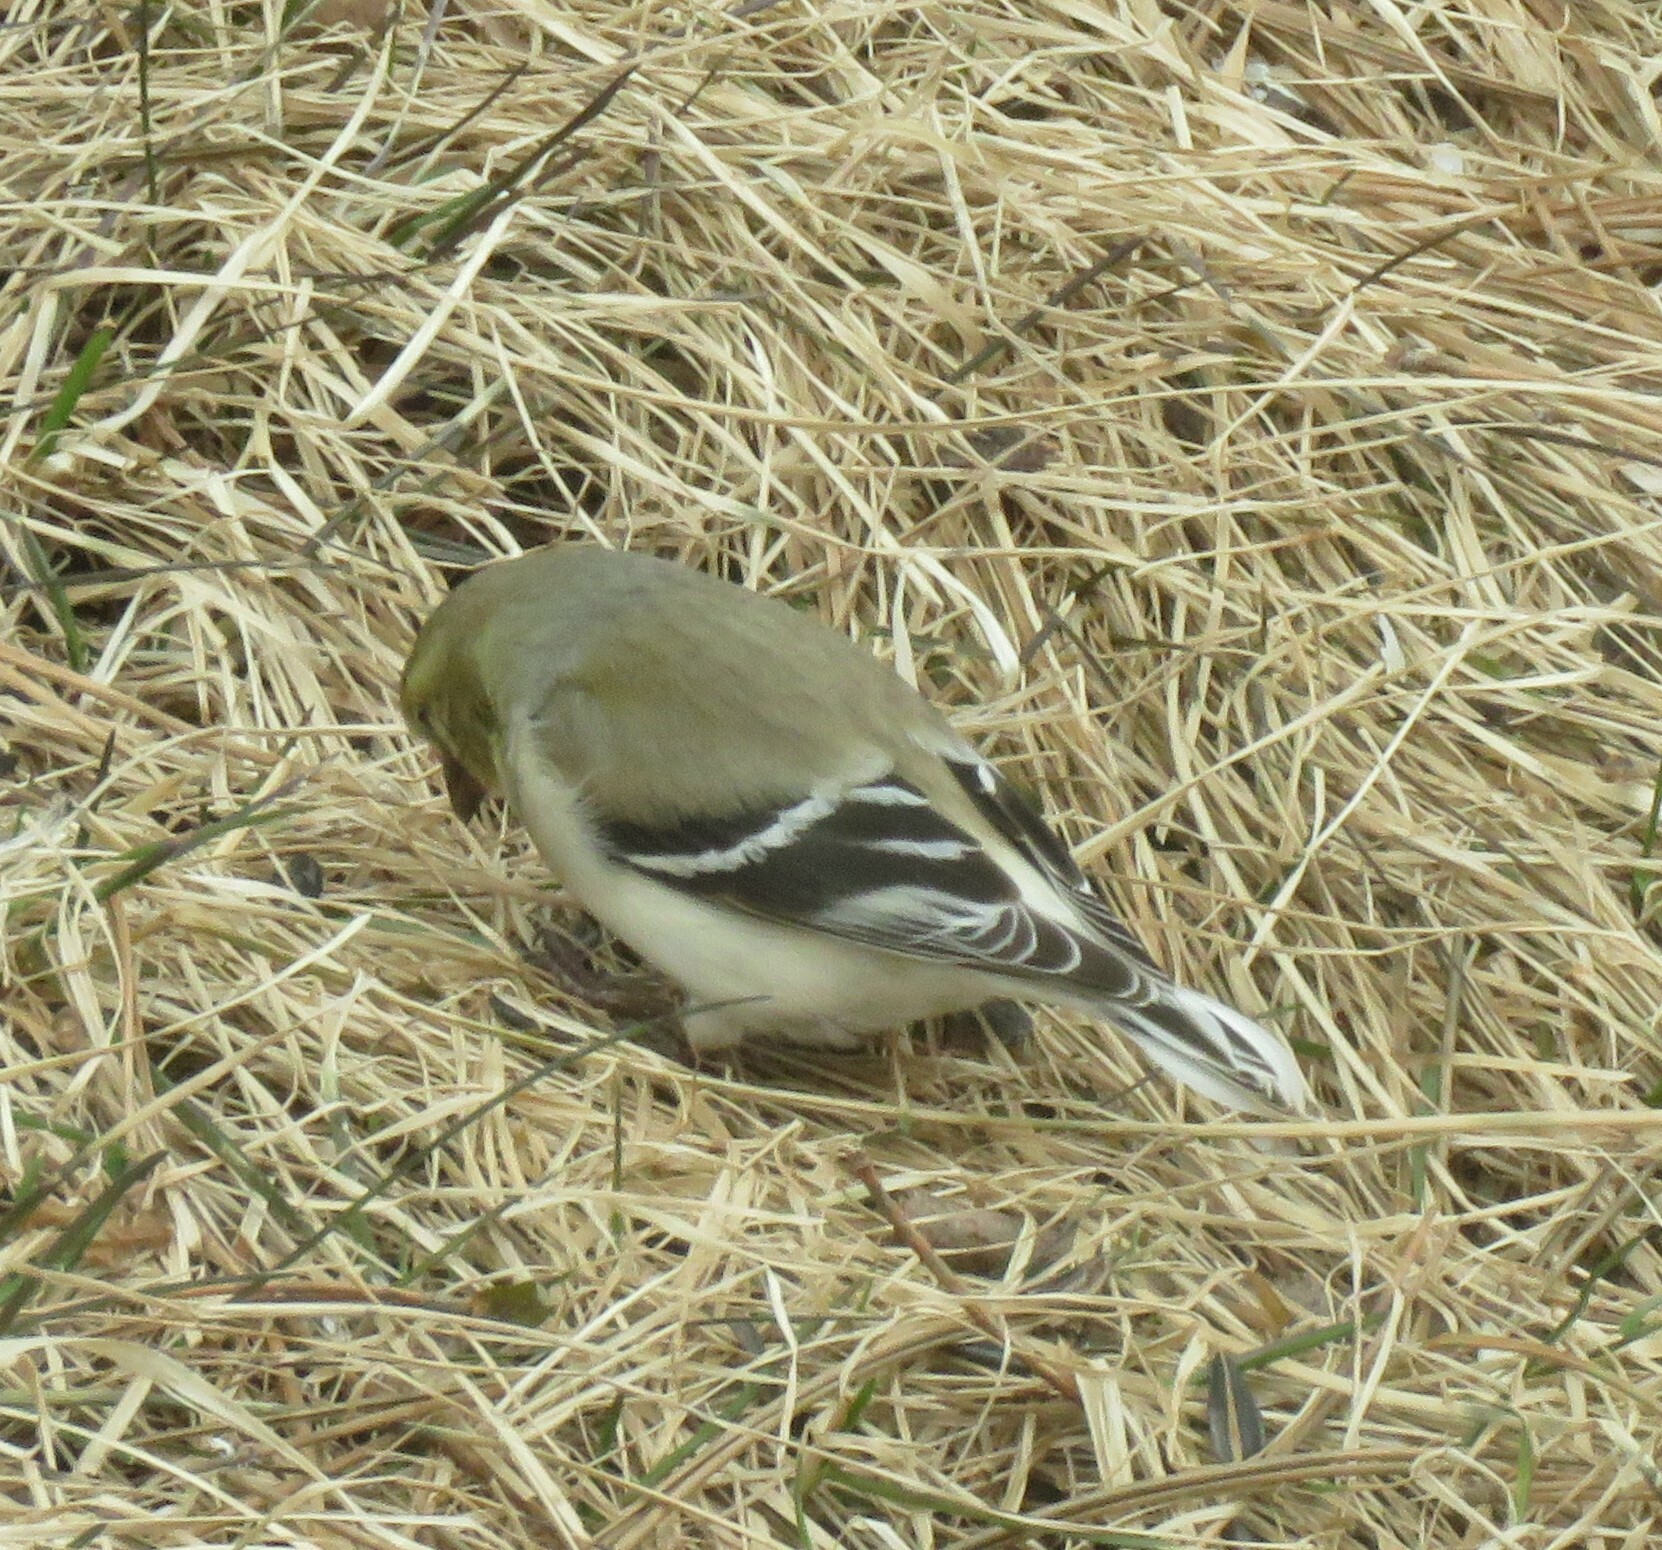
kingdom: Animalia
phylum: Chordata
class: Aves
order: Passeriformes
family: Fringillidae
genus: Spinus
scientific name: Spinus tristis
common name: American goldfinch
